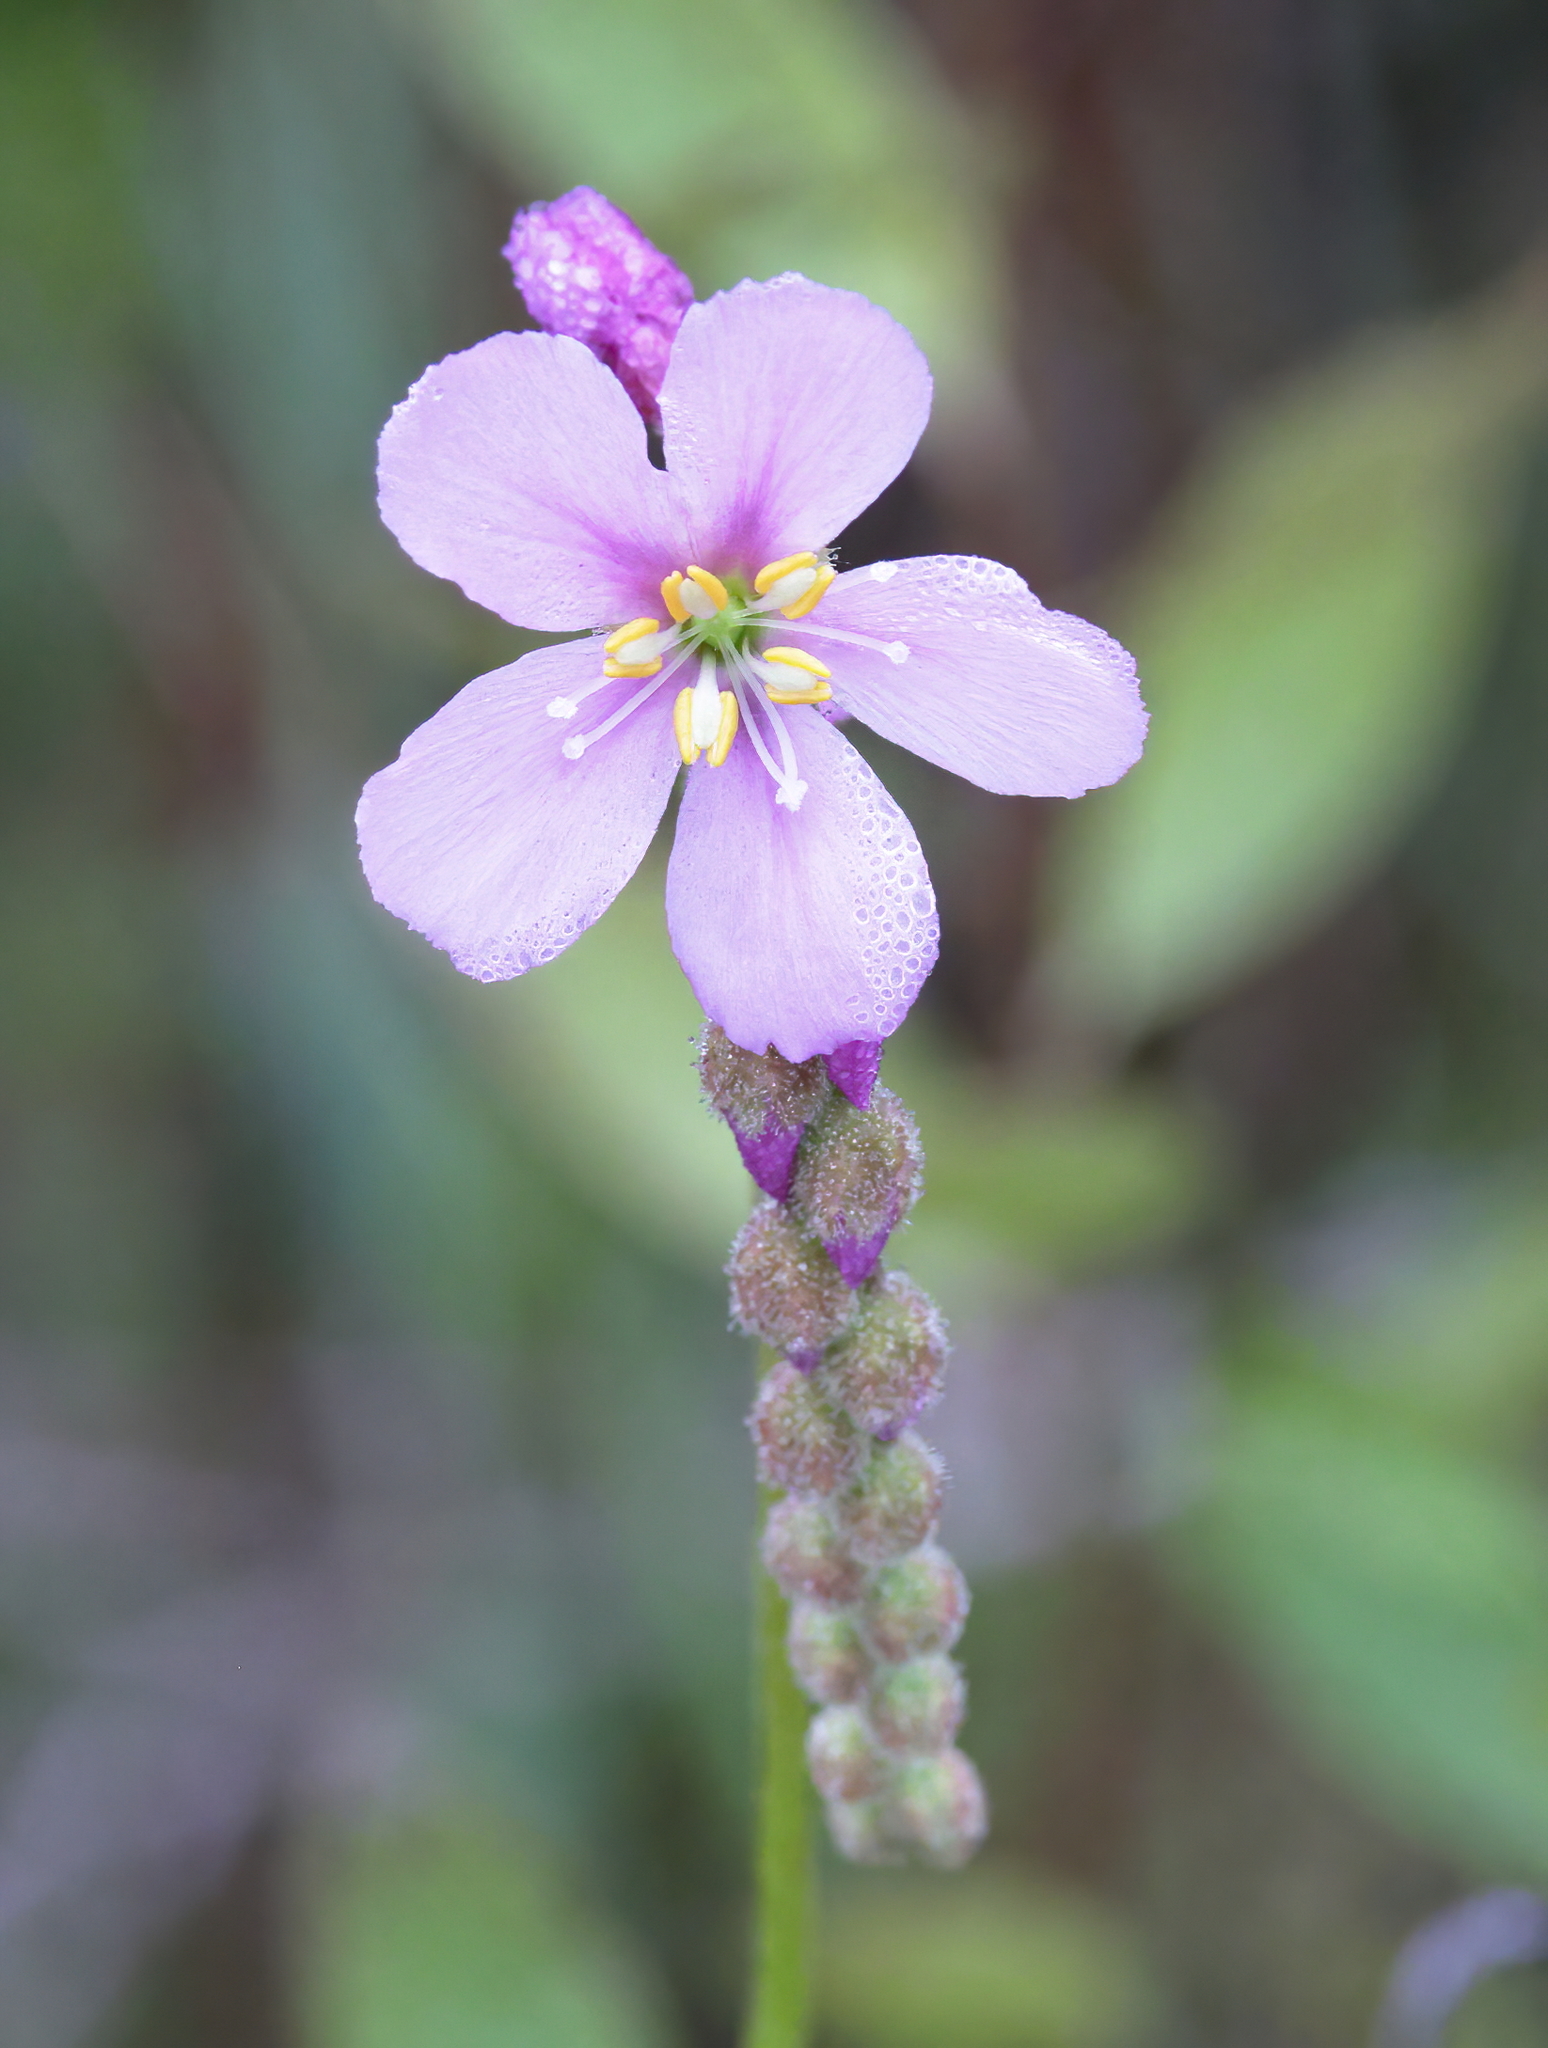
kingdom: Plantae
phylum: Tracheophyta
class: Magnoliopsida
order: Caryophyllales
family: Droseraceae
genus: Drosera
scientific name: Drosera filiformis
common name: Dew-thread
